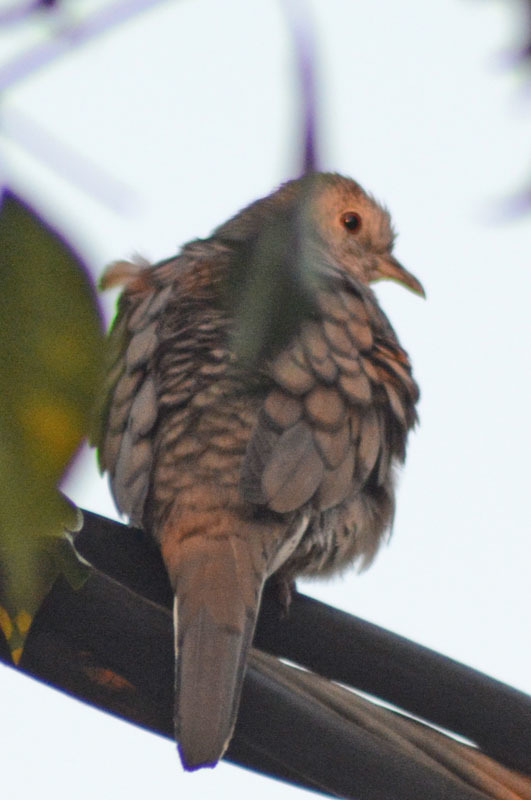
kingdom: Animalia
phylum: Chordata
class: Aves
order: Columbiformes
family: Columbidae
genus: Columbina
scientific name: Columbina inca
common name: Inca dove
